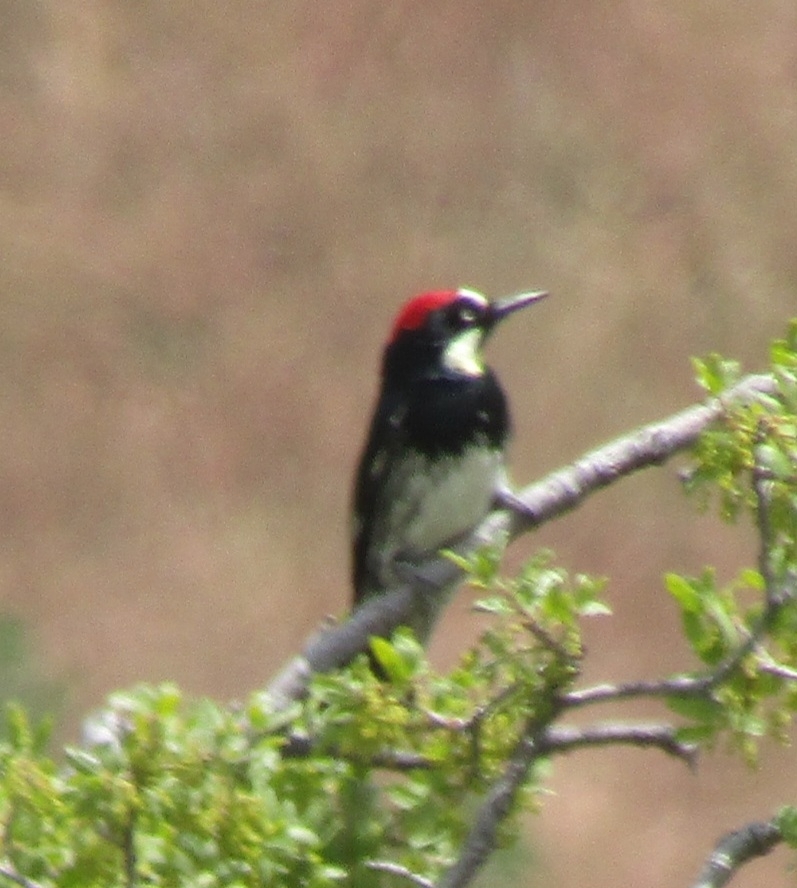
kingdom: Animalia
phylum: Chordata
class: Aves
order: Piciformes
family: Picidae
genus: Melanerpes
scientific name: Melanerpes formicivorus
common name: Acorn woodpecker
